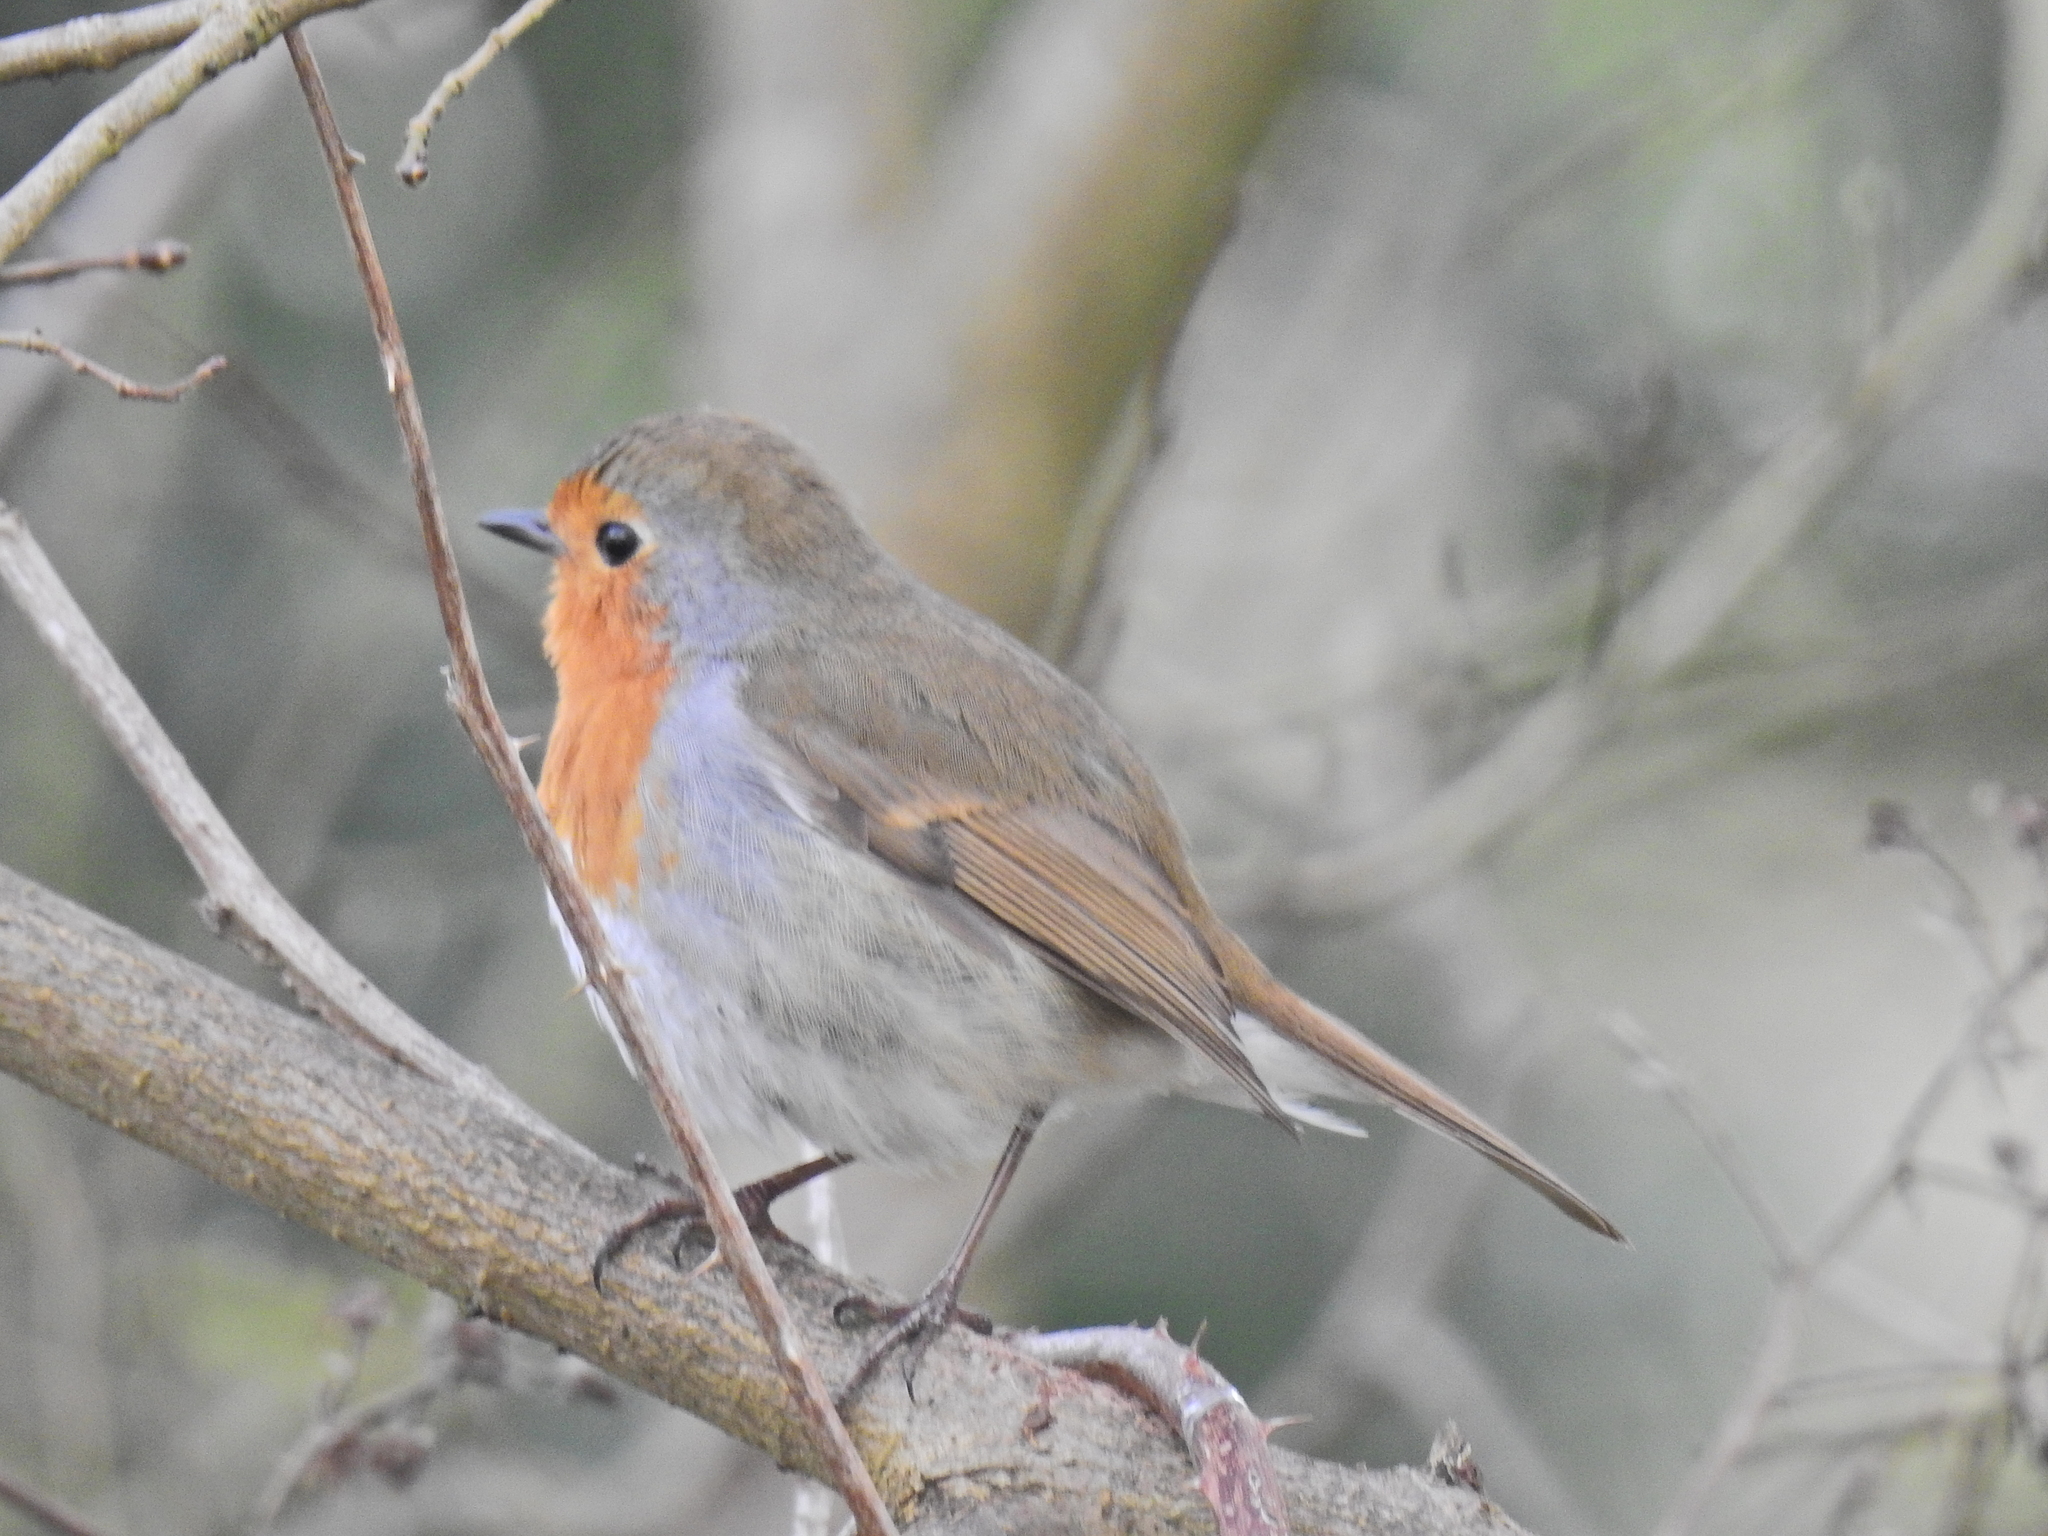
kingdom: Animalia
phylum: Chordata
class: Aves
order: Passeriformes
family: Muscicapidae
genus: Erithacus
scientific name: Erithacus rubecula
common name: European robin
